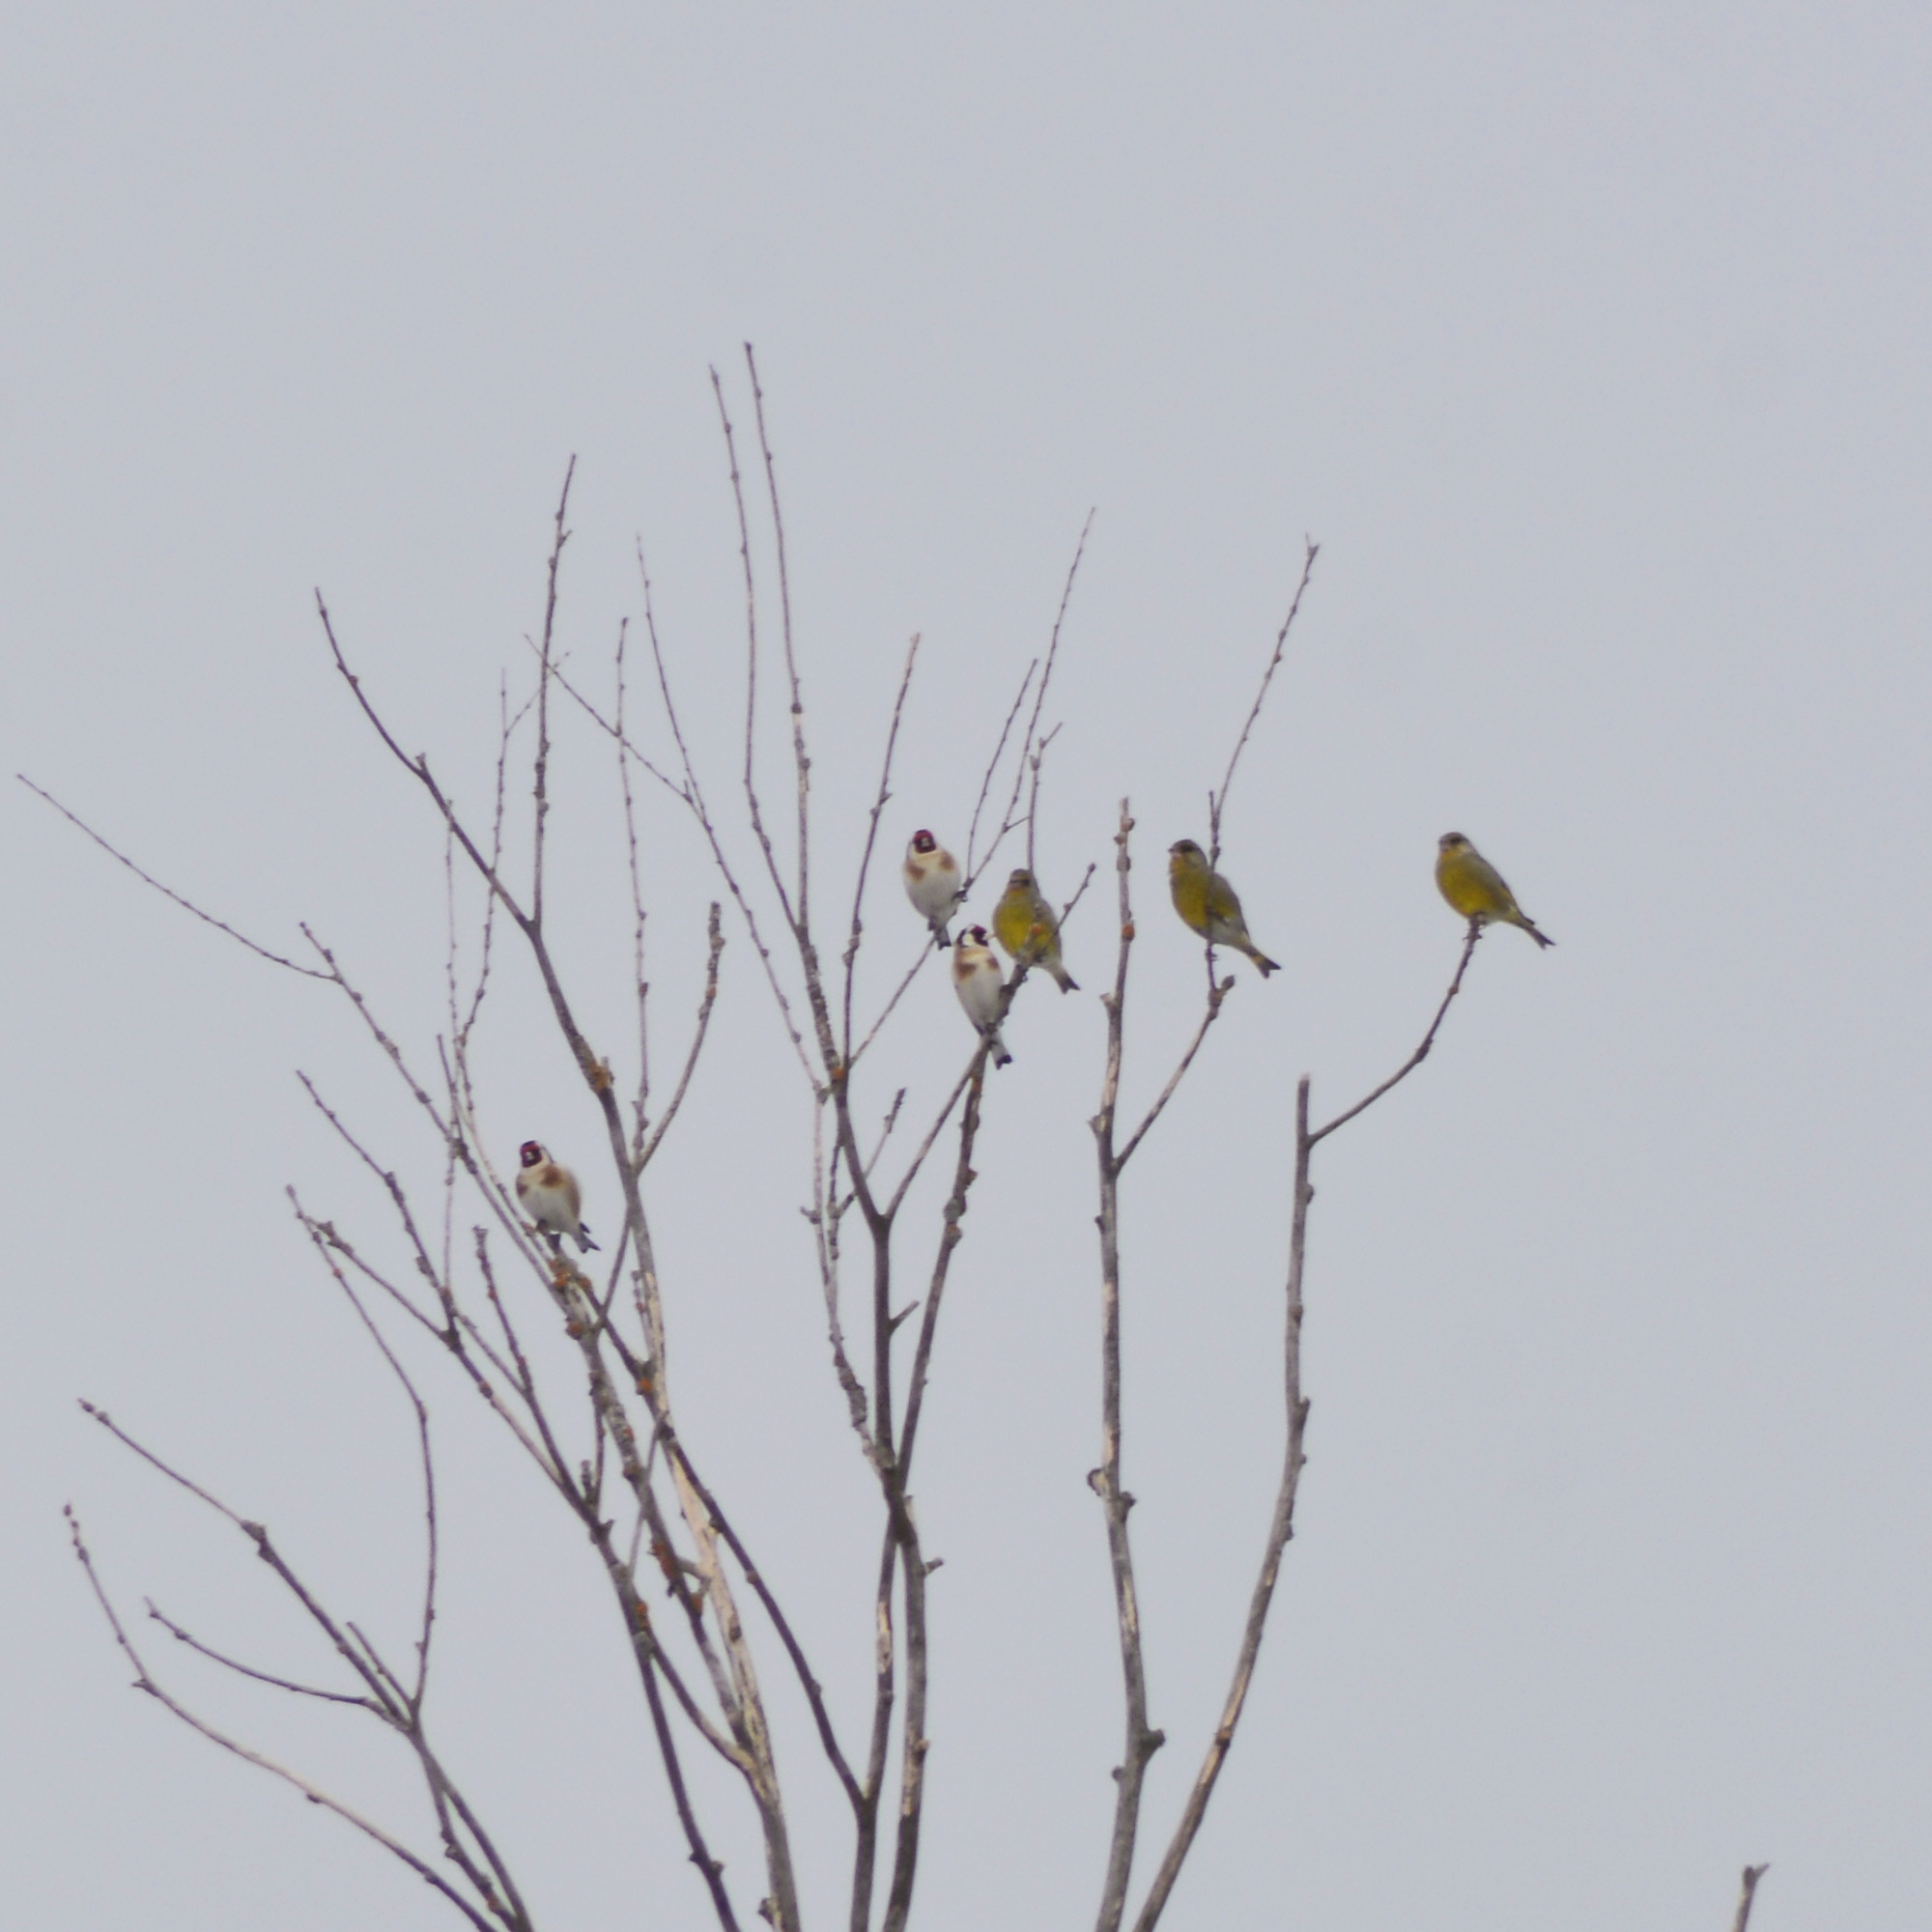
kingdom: Plantae
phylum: Tracheophyta
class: Liliopsida
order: Poales
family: Poaceae
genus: Chloris
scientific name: Chloris chloris
